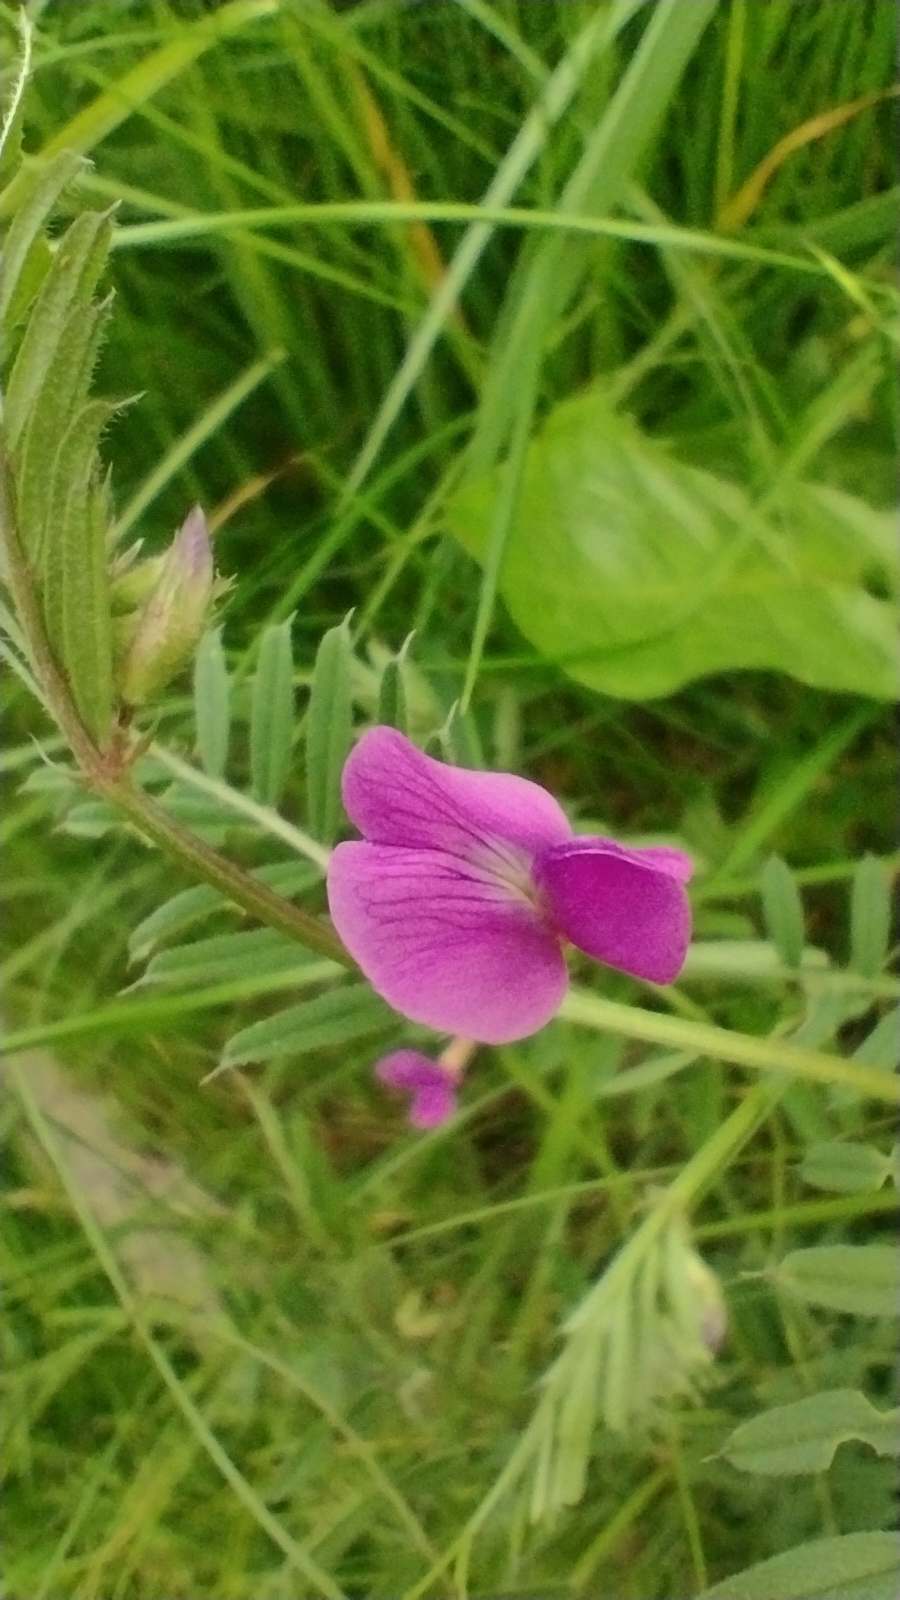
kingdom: Plantae
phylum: Tracheophyta
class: Magnoliopsida
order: Fabales
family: Fabaceae
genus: Vicia
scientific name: Vicia sativa
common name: Garden vetch
